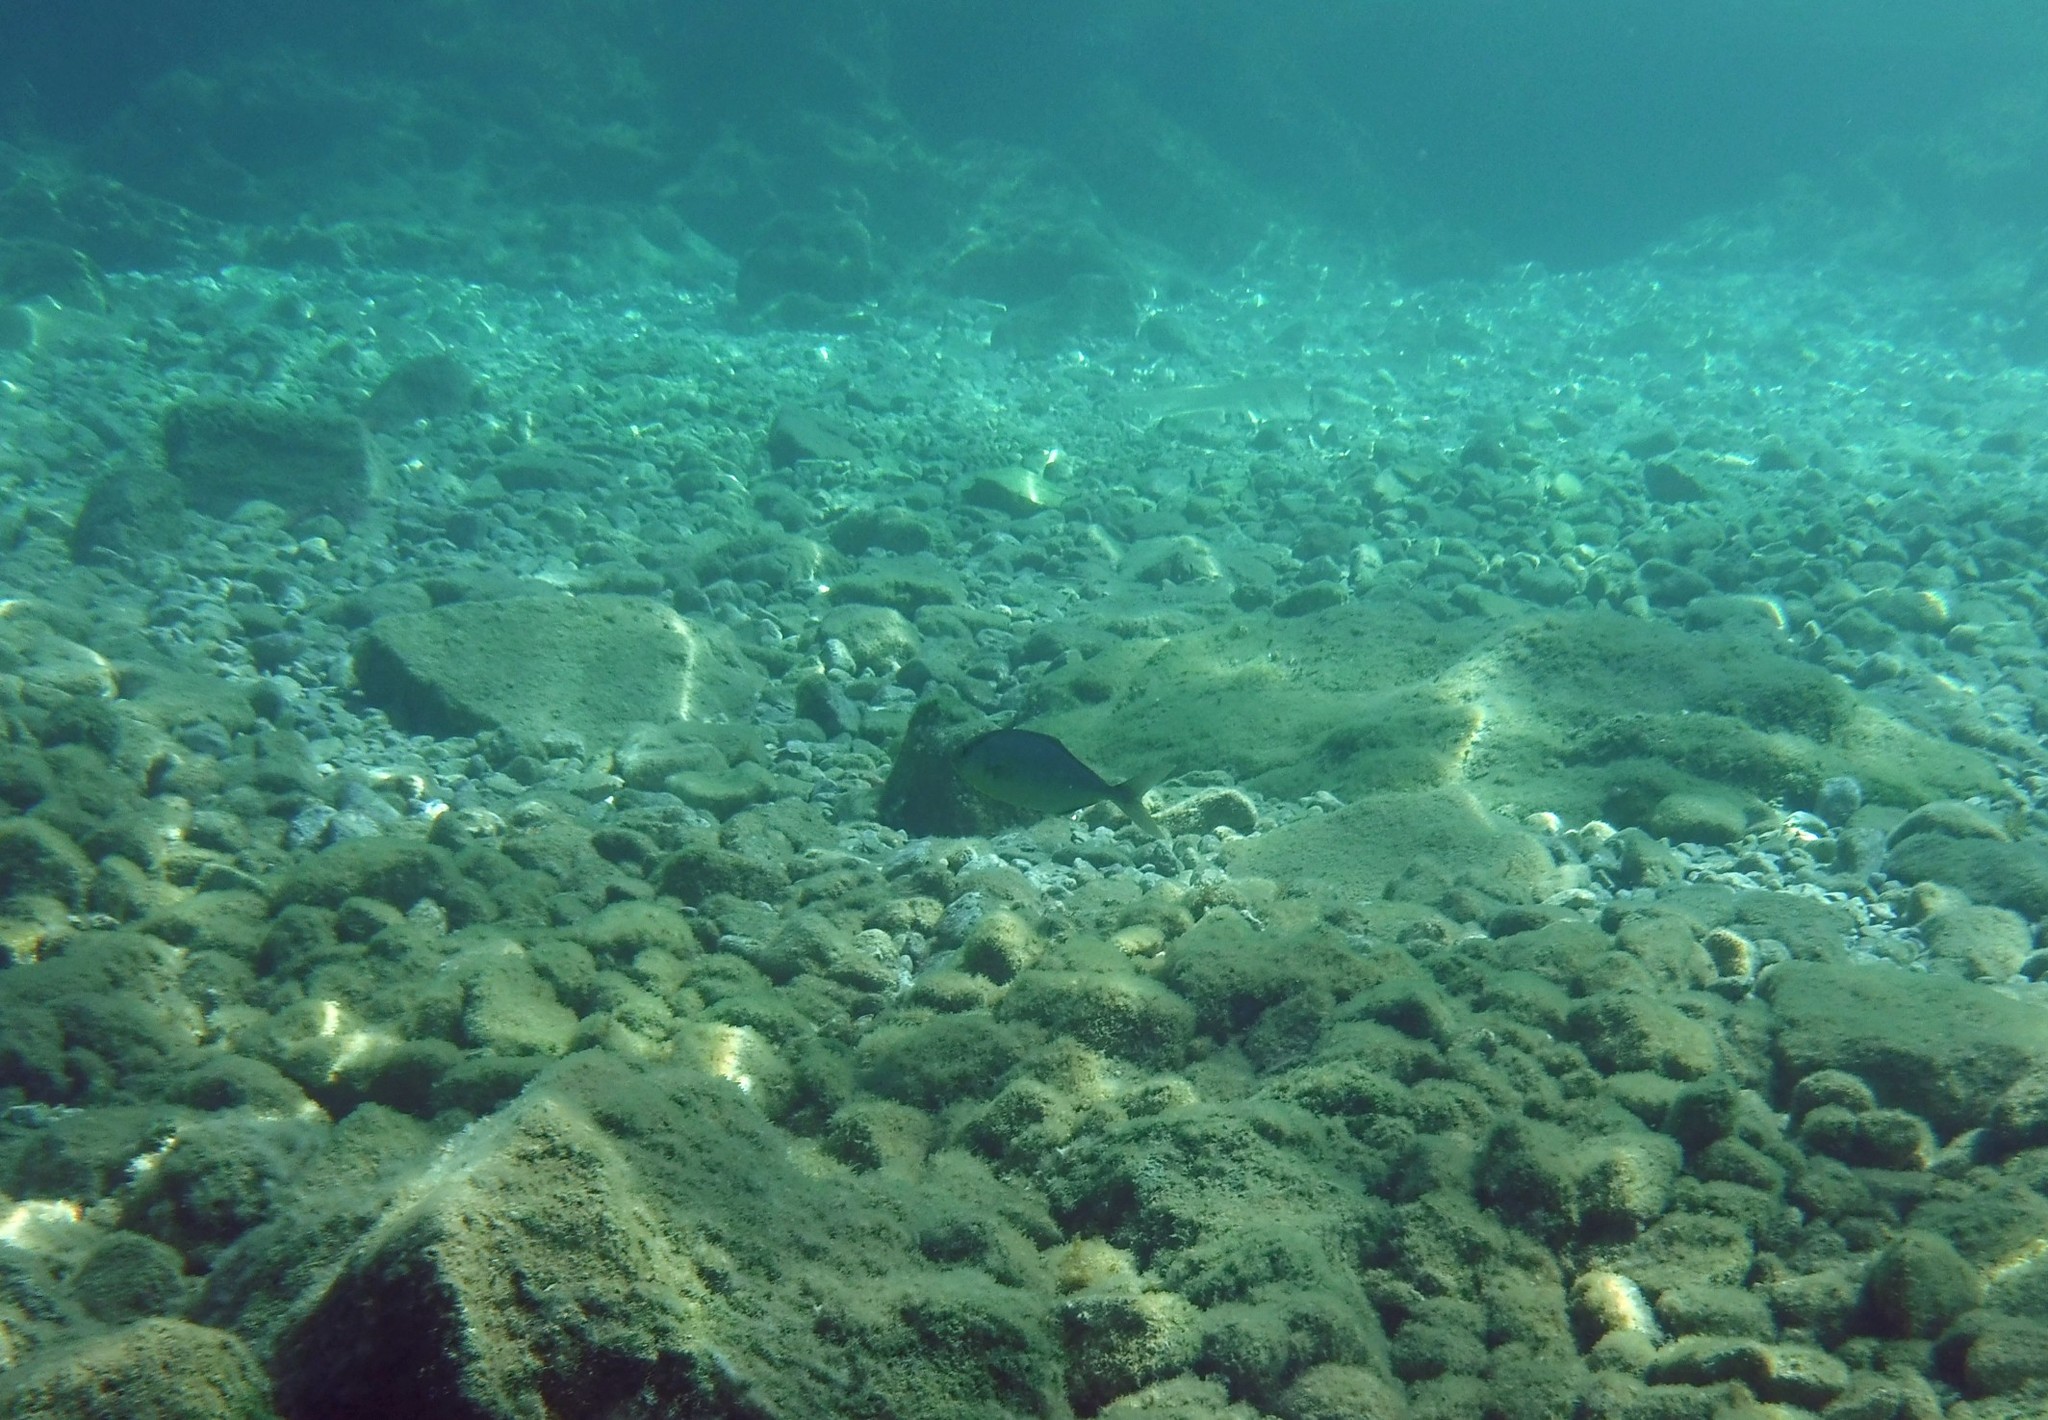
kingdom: Animalia
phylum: Chordata
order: Perciformes
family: Carangidae
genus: Seriola
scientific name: Seriola dumerili
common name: Greater amberjack
